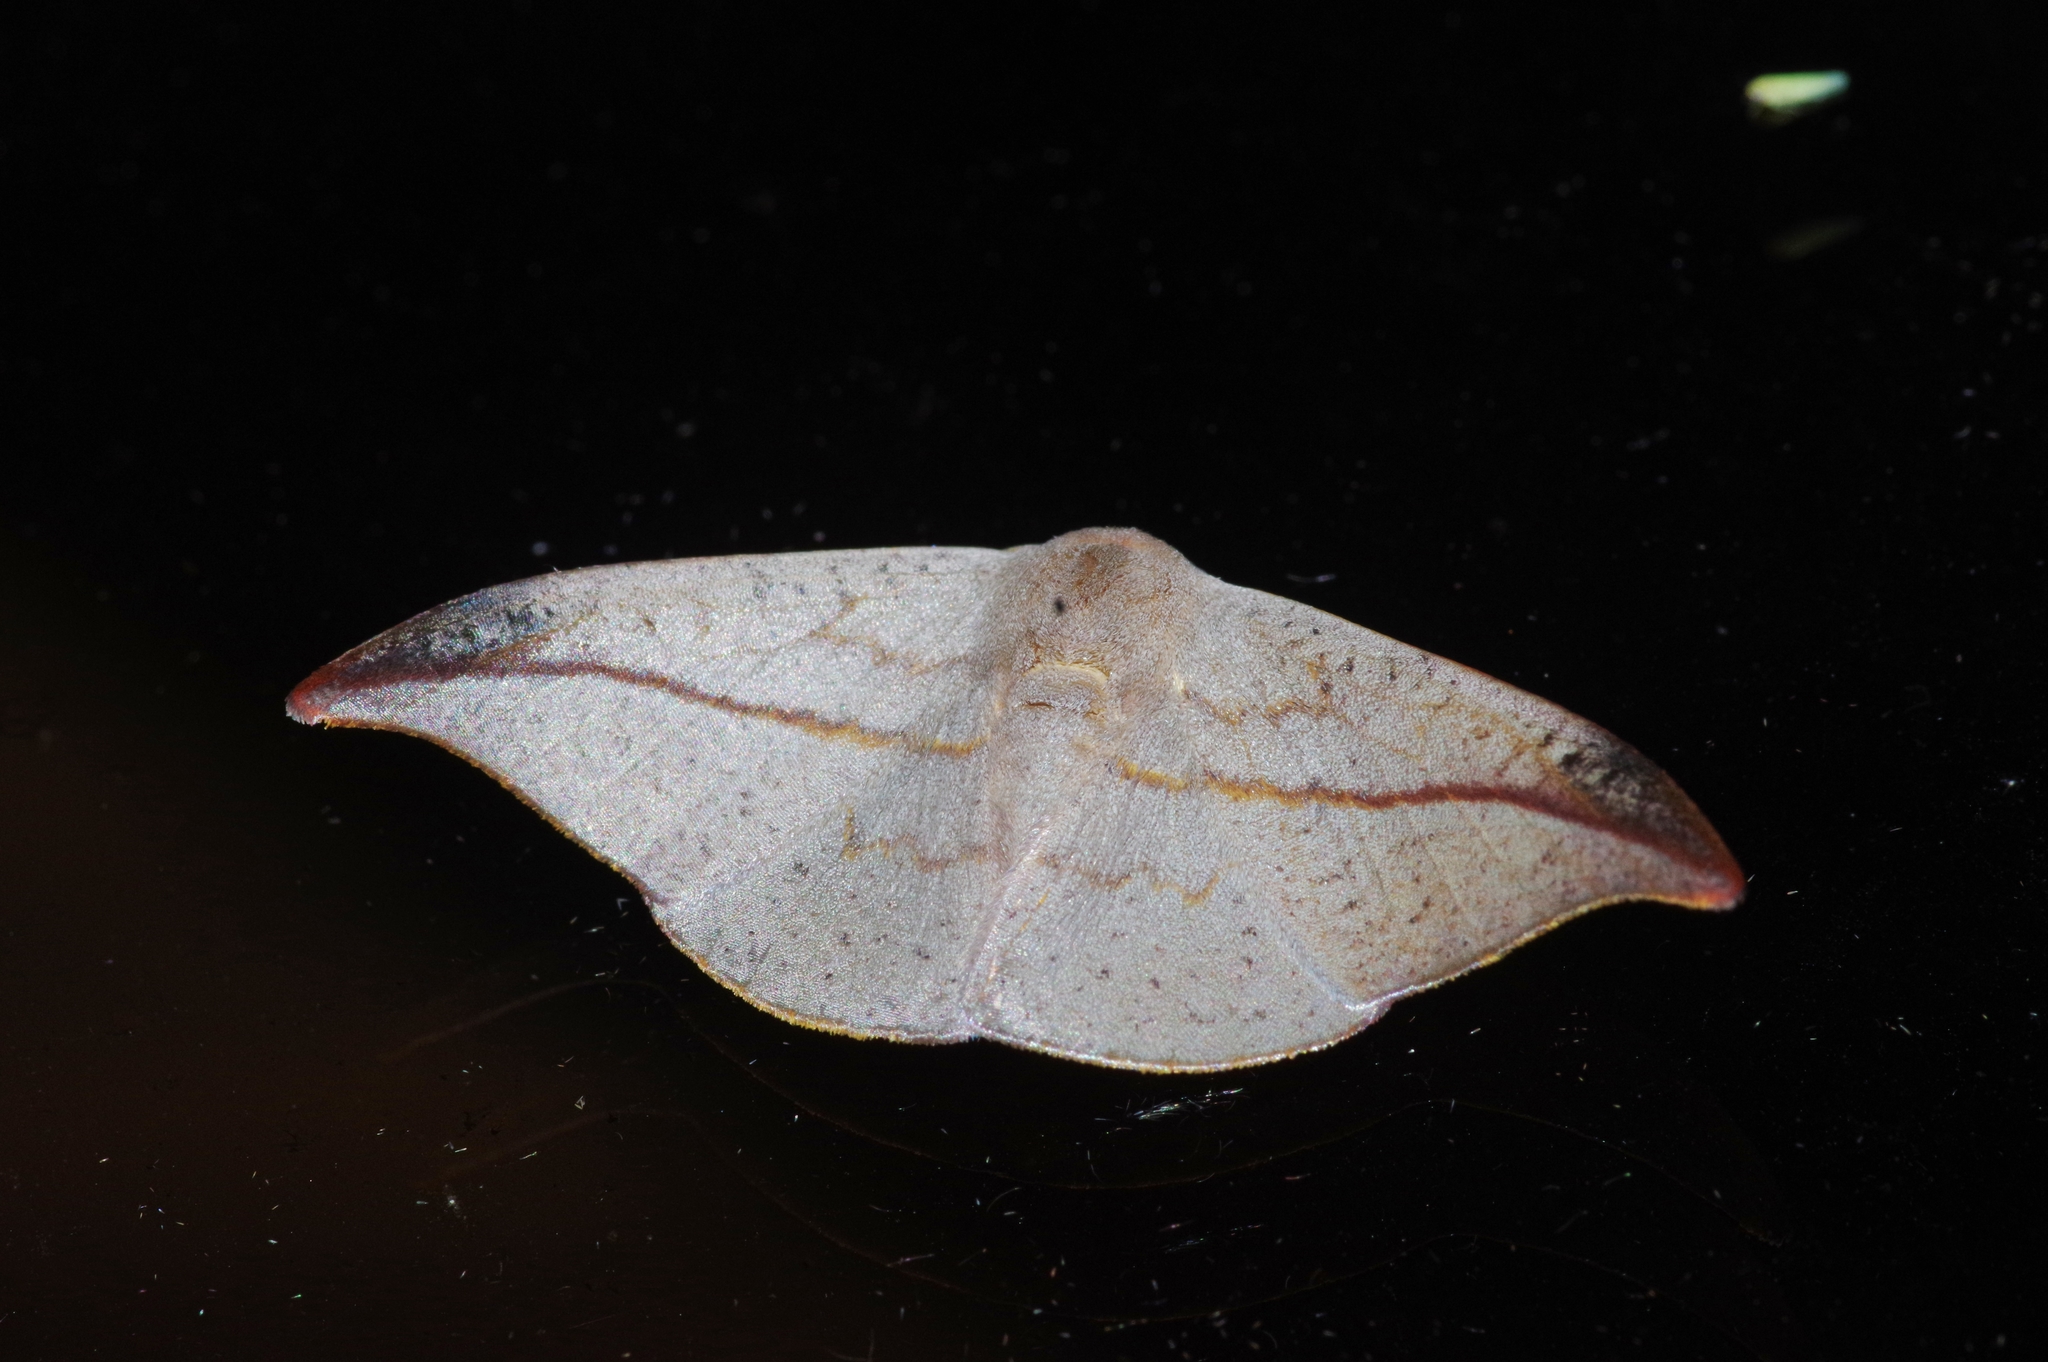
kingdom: Animalia
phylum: Arthropoda
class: Insecta
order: Lepidoptera
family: Drepanidae
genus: Oreta
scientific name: Oreta insignis
